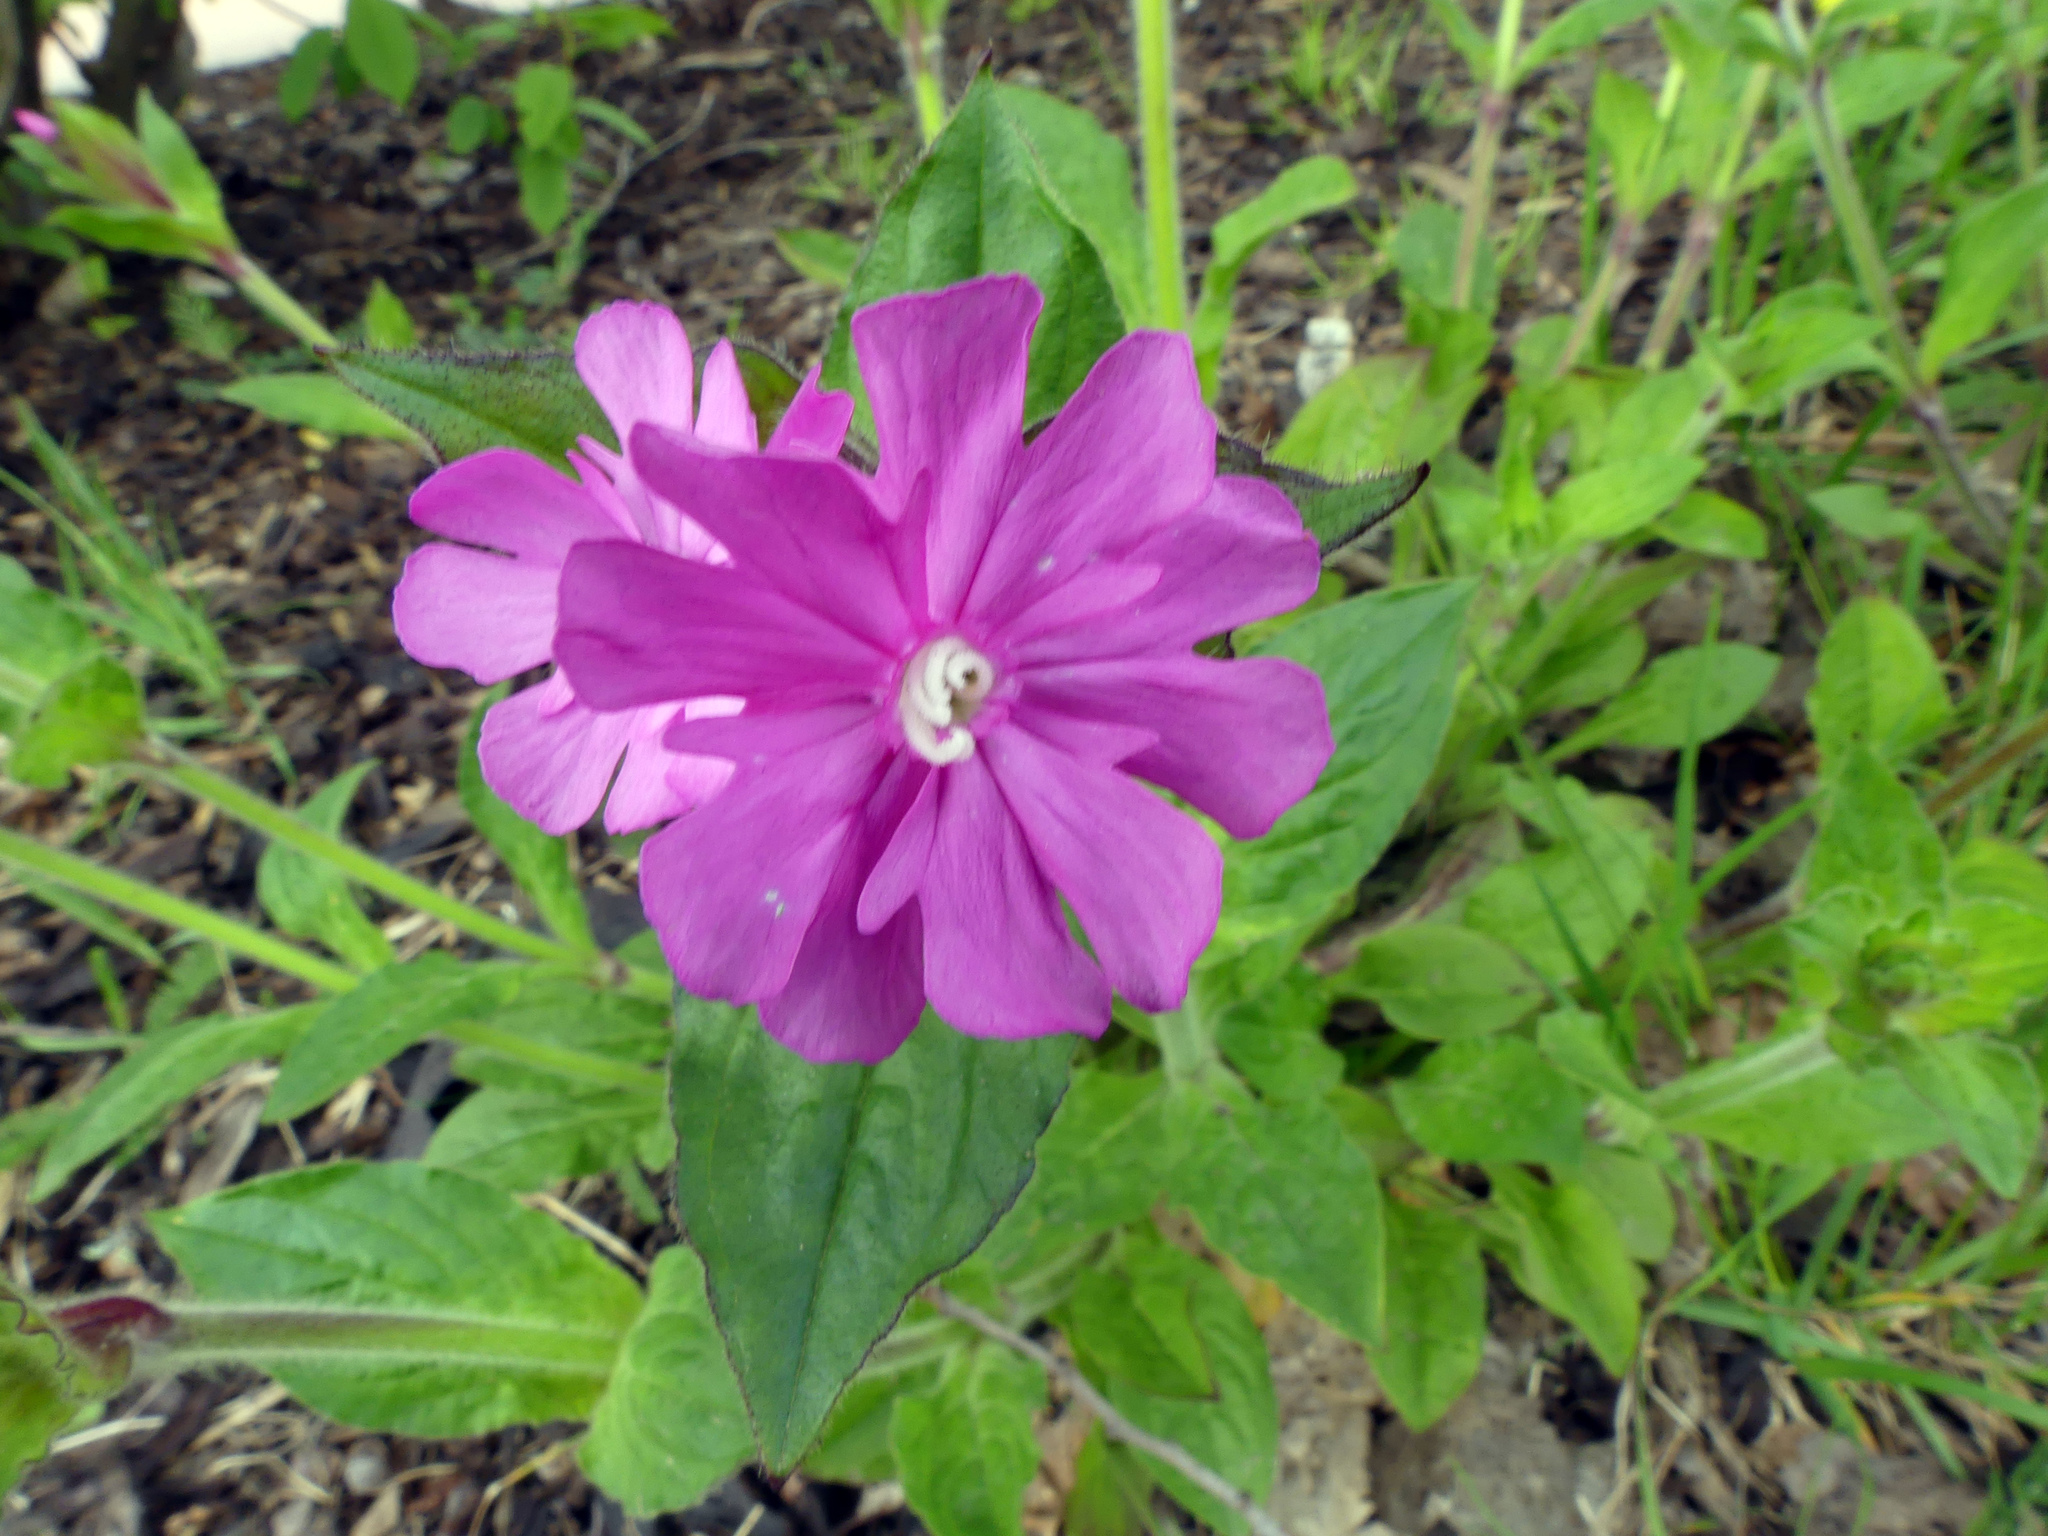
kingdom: Plantae
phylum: Tracheophyta
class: Magnoliopsida
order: Caryophyllales
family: Caryophyllaceae
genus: Silene
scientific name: Silene dioica
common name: Red campion
